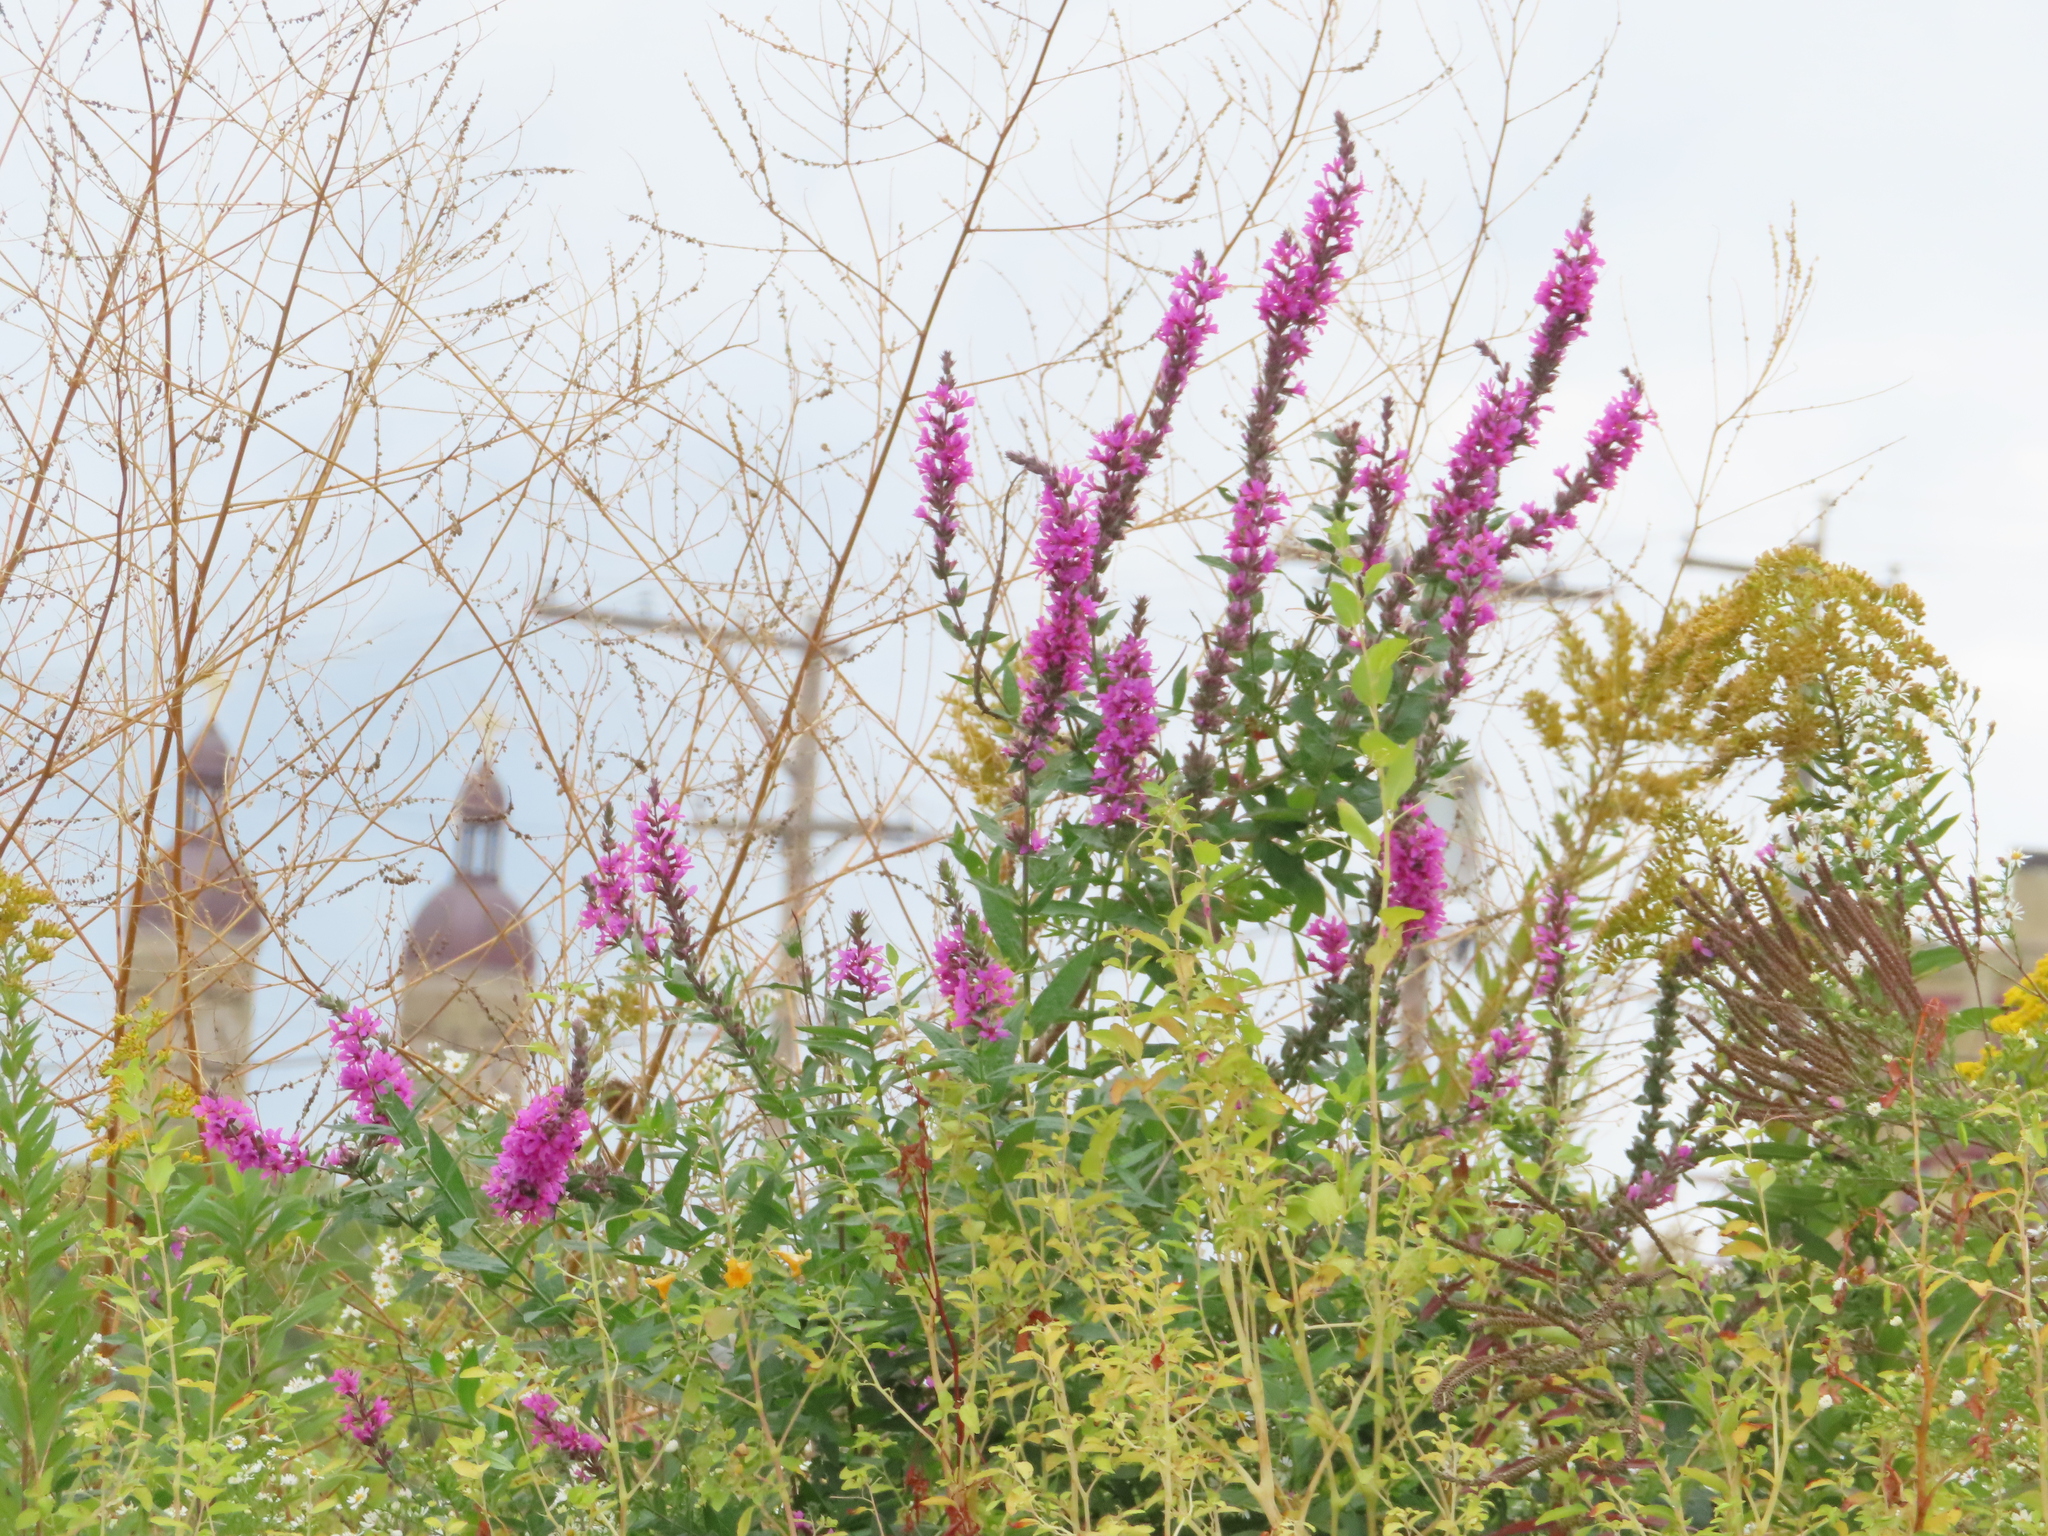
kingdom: Plantae
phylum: Tracheophyta
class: Magnoliopsida
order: Myrtales
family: Lythraceae
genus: Lythrum
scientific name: Lythrum salicaria
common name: Purple loosestrife
